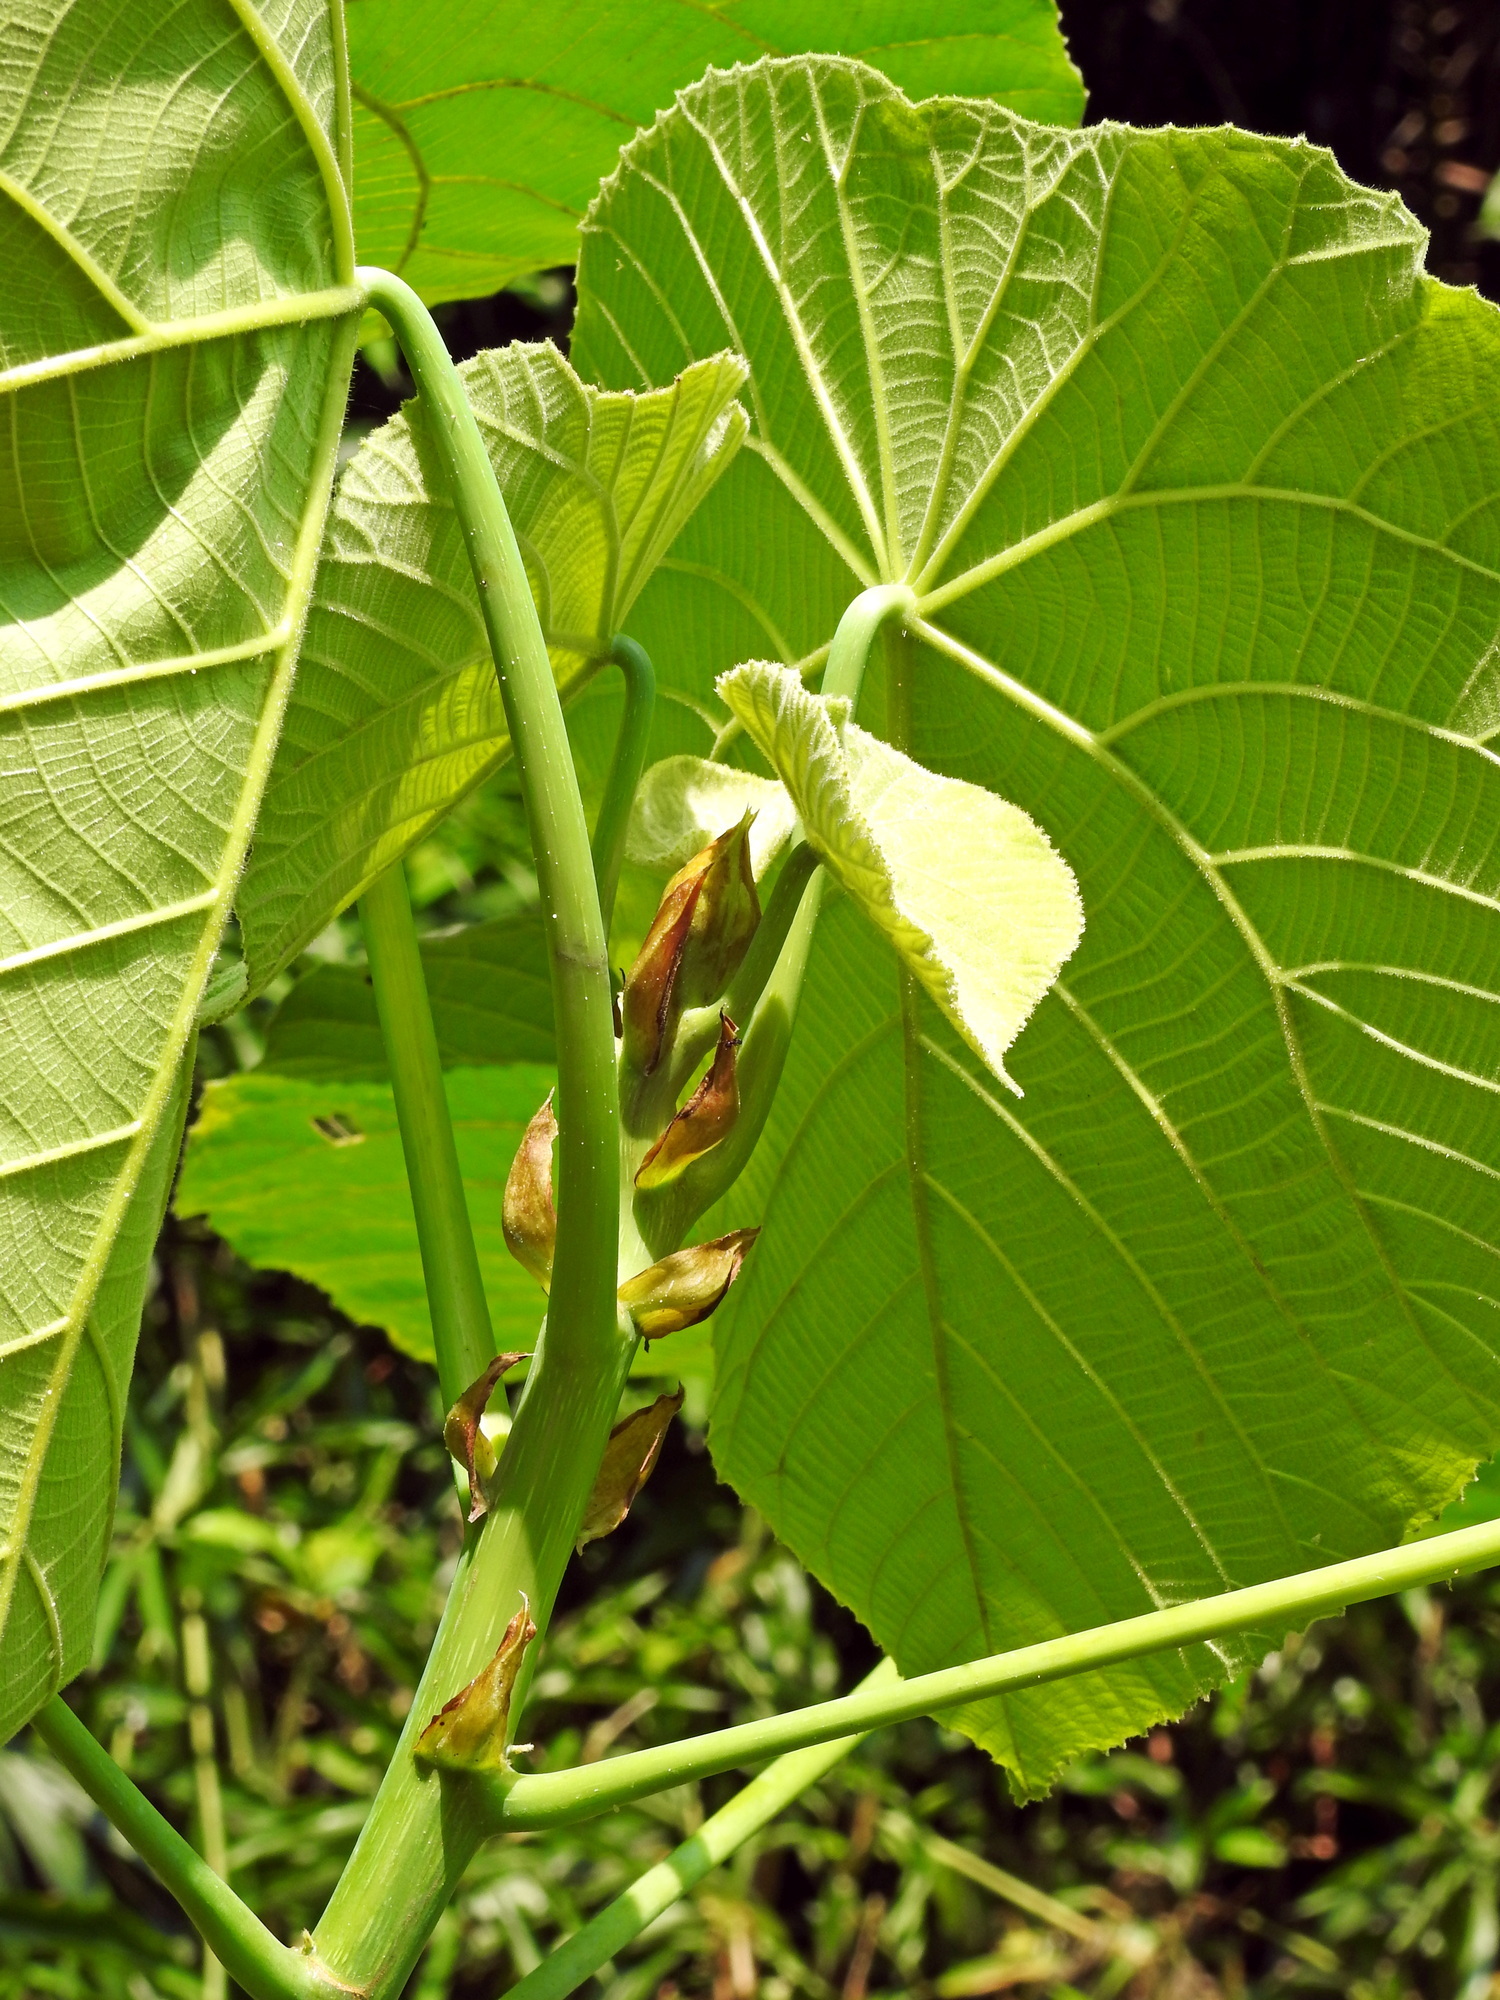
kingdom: Plantae
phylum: Tracheophyta
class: Magnoliopsida
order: Malpighiales
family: Euphorbiaceae
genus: Macaranga
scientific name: Macaranga tanarius
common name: Parasol leaf tree
